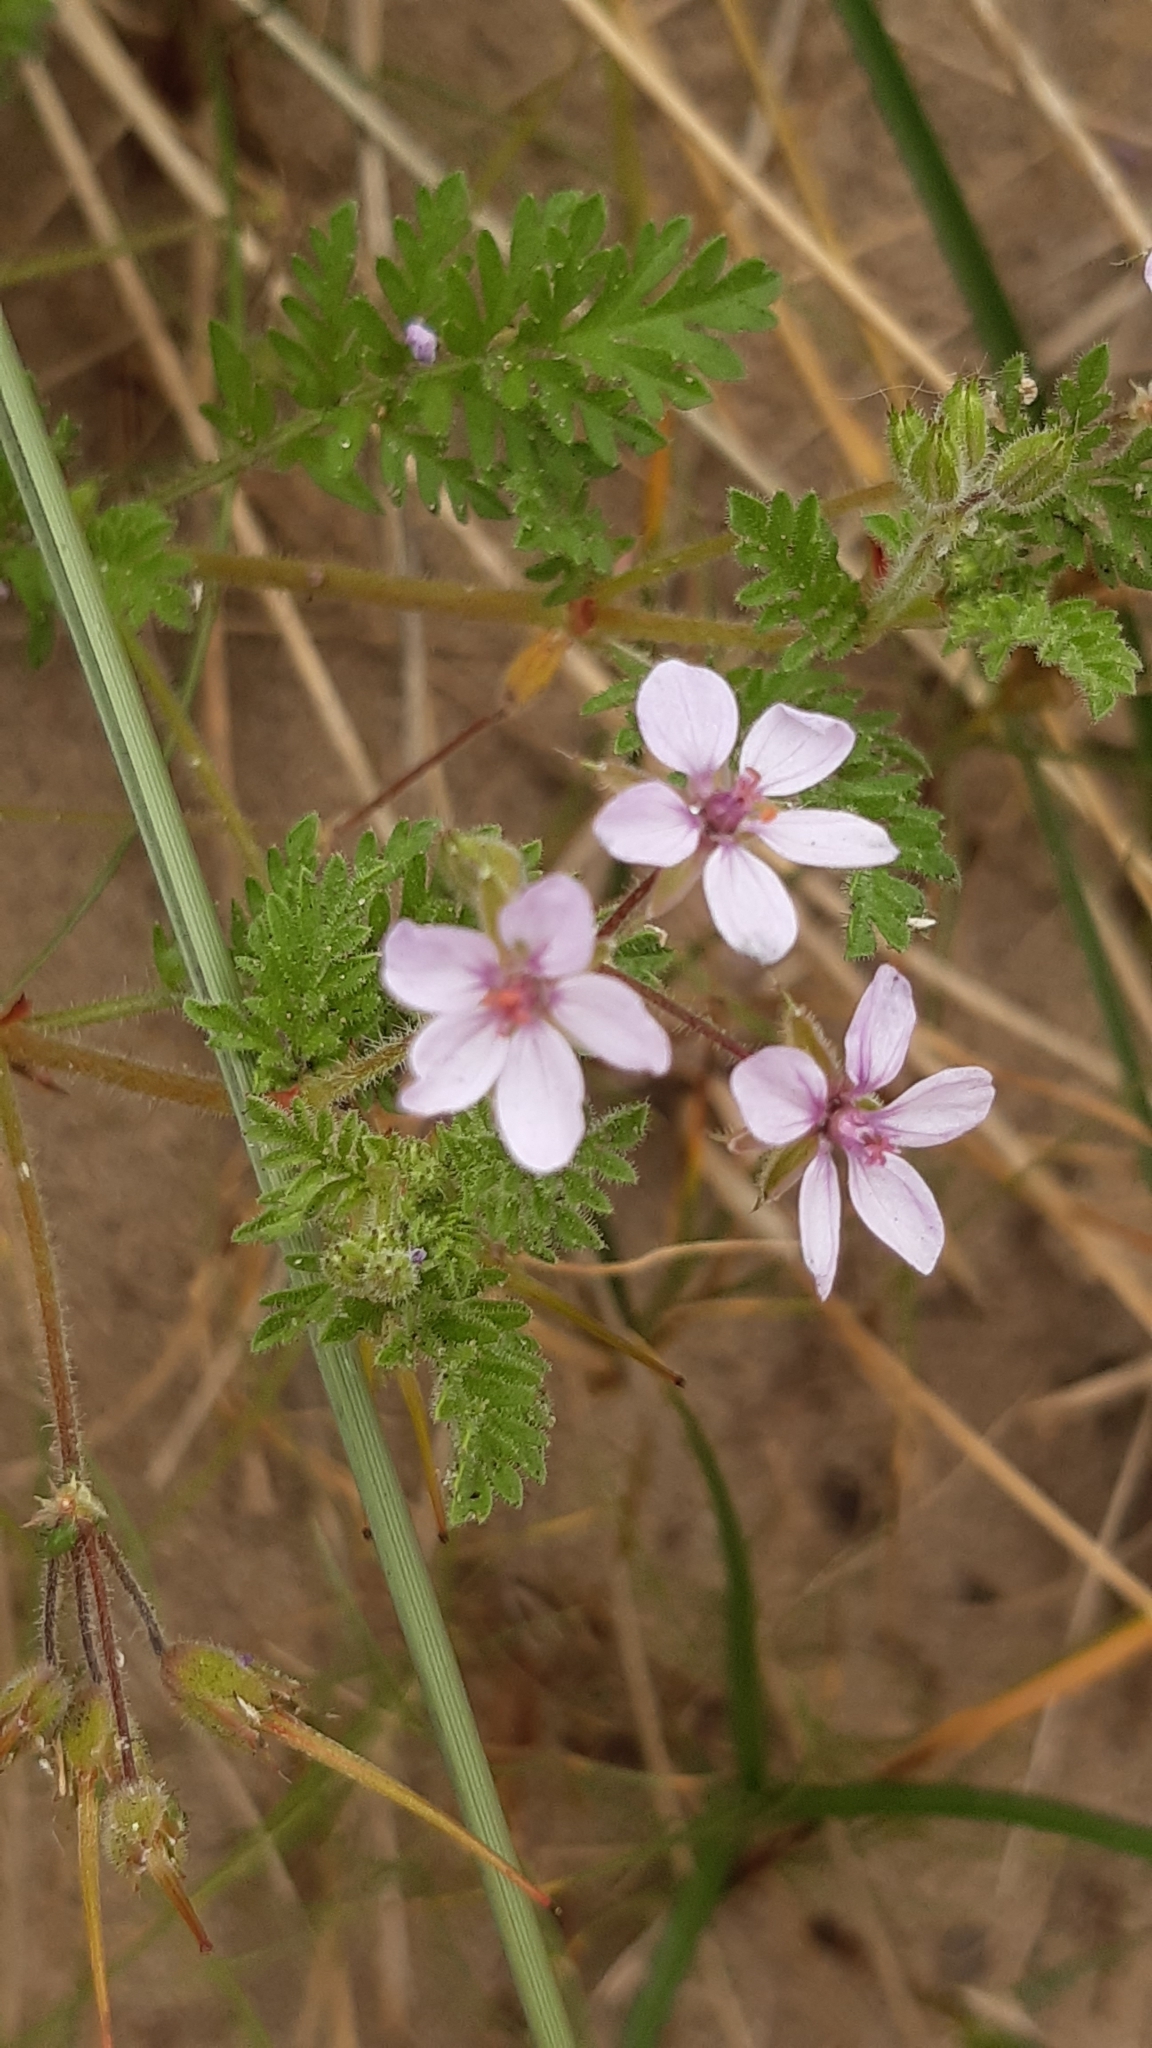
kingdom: Plantae
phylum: Tracheophyta
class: Magnoliopsida
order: Geraniales
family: Geraniaceae
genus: Erodium
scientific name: Erodium cicutarium
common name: Common stork's-bill
